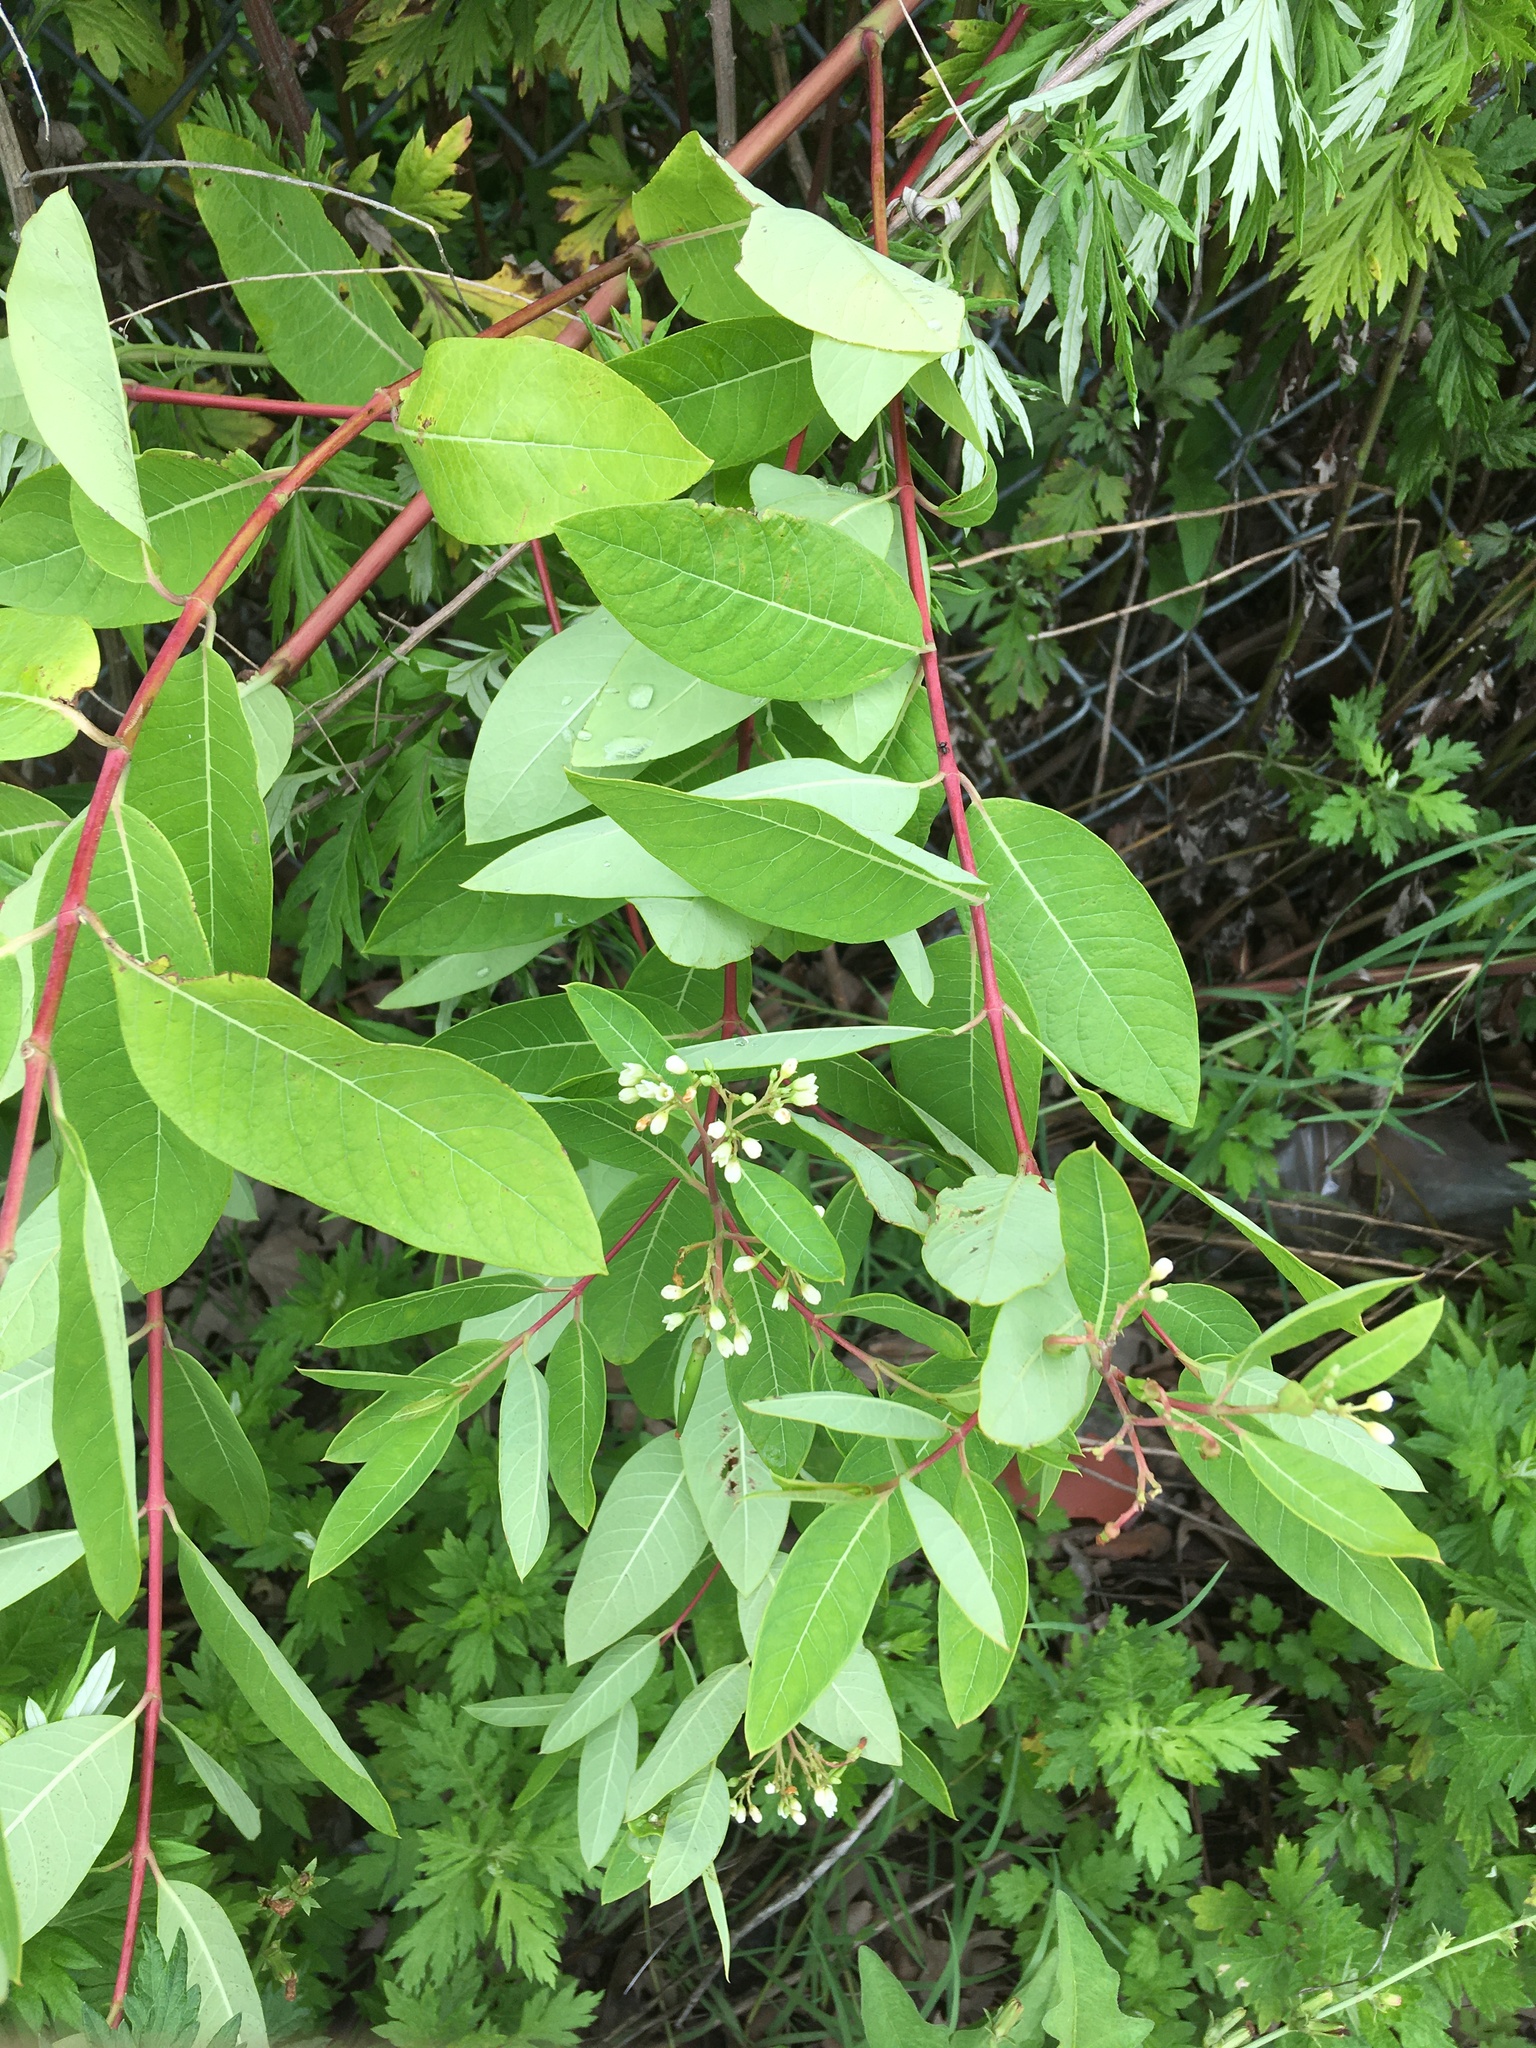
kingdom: Plantae
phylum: Tracheophyta
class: Magnoliopsida
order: Gentianales
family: Apocynaceae
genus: Apocynum
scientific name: Apocynum cannabinum
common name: Hemp dogbane
